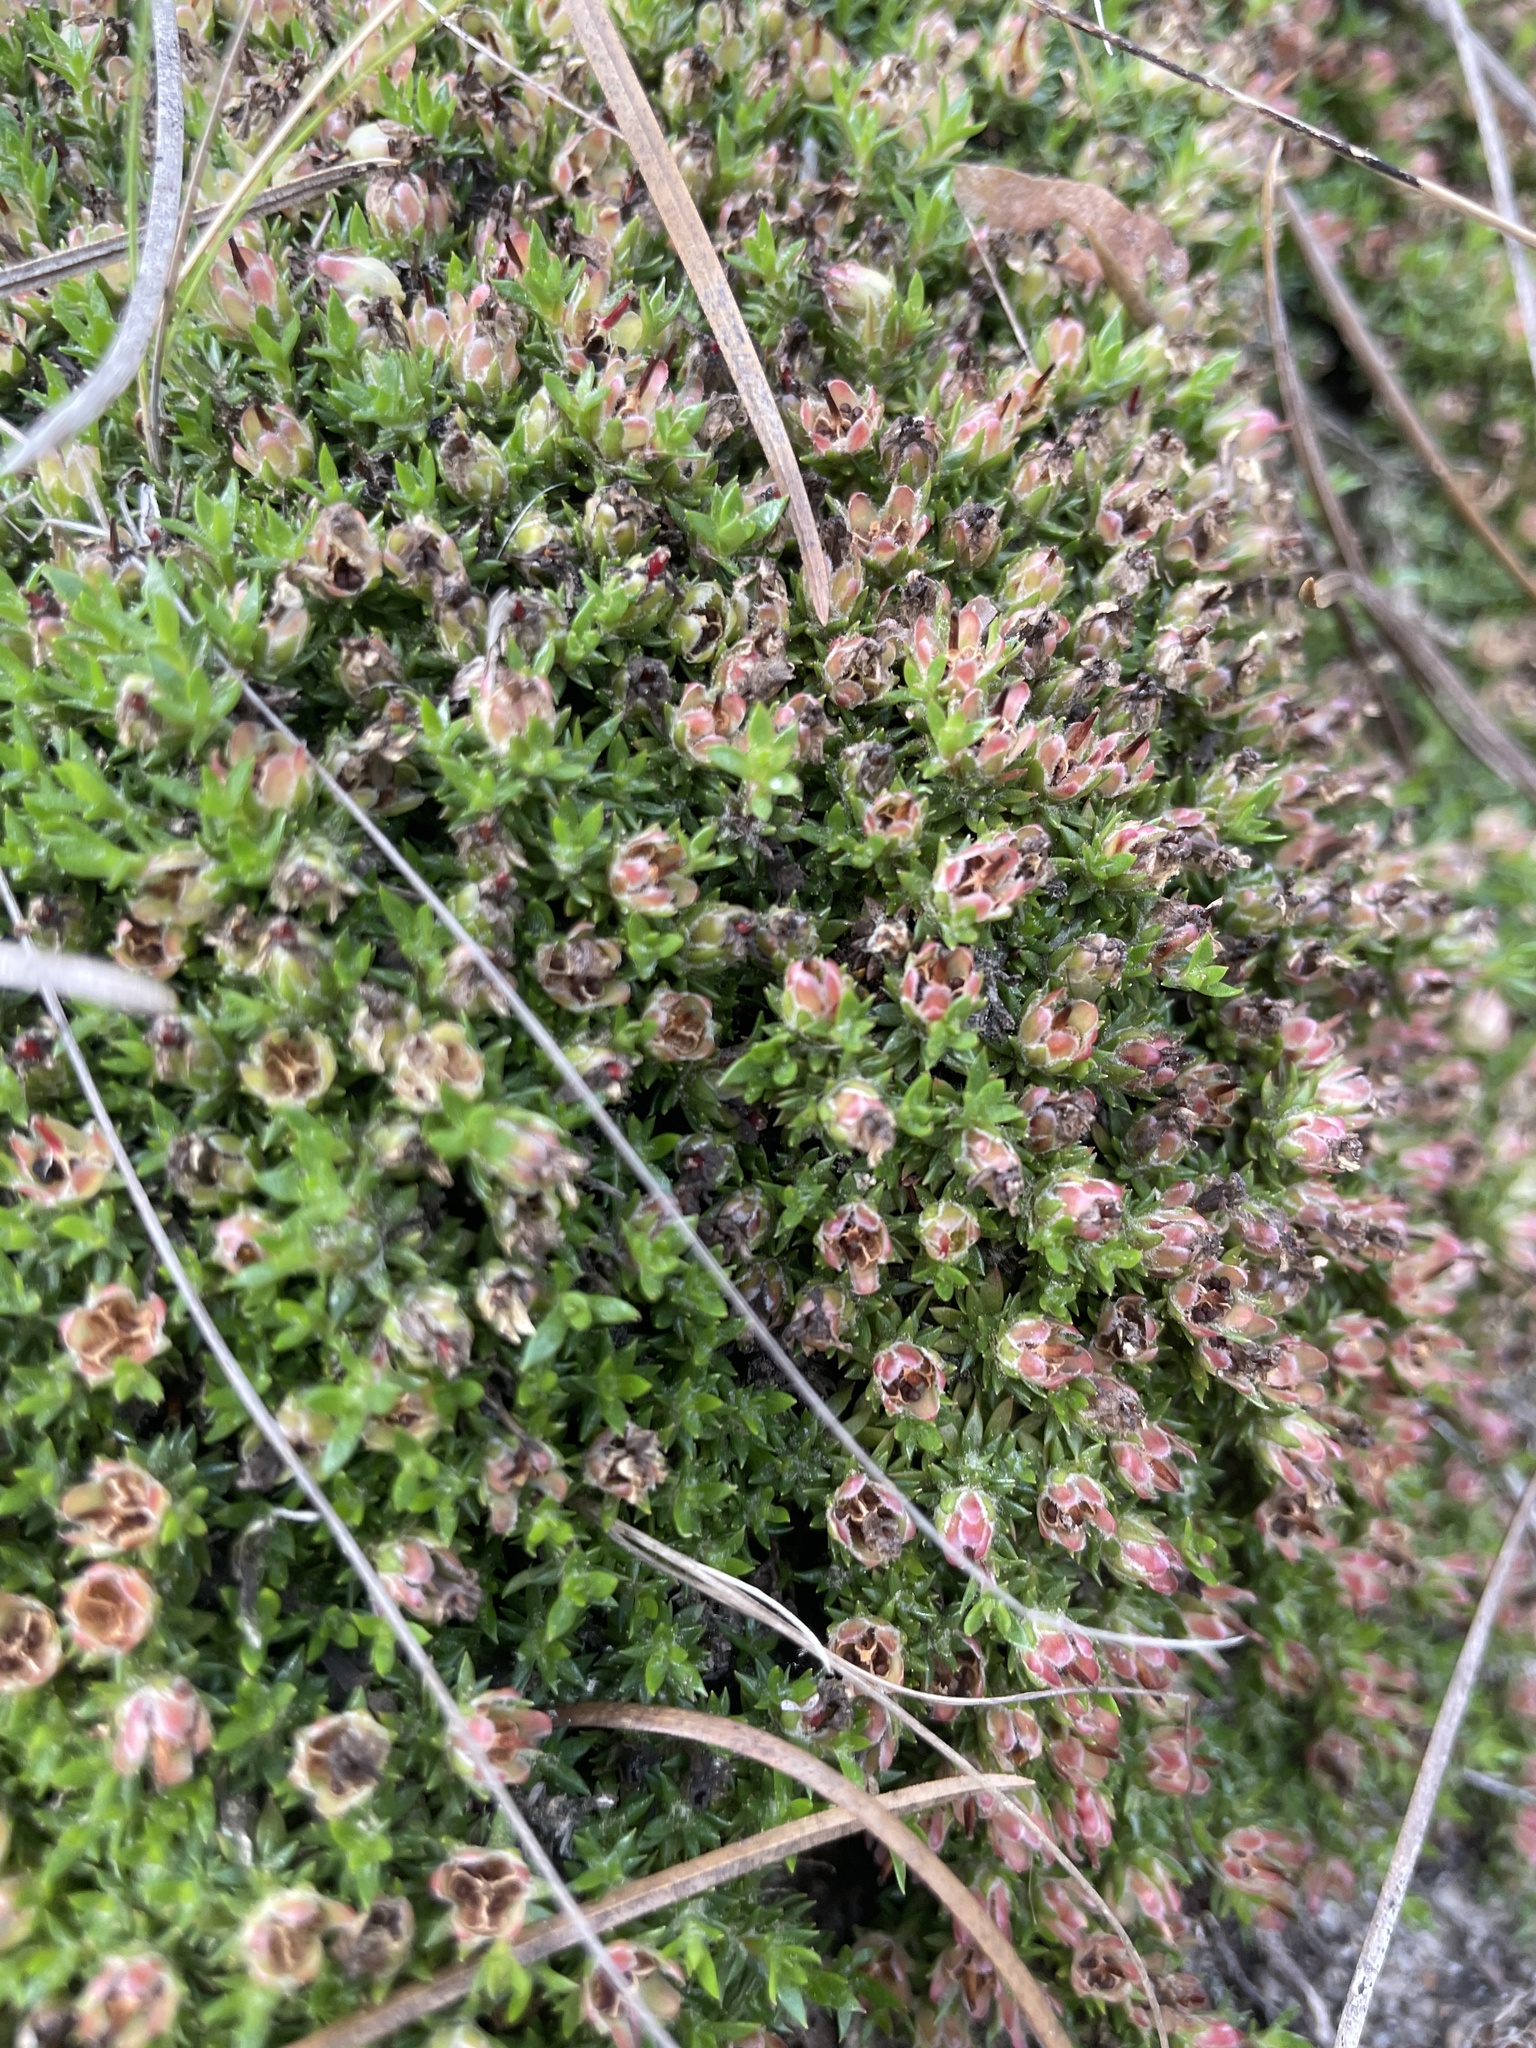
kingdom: Plantae
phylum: Tracheophyta
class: Magnoliopsida
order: Ericales
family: Diapensiaceae
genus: Pyxidanthera
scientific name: Pyxidanthera brevifolia
